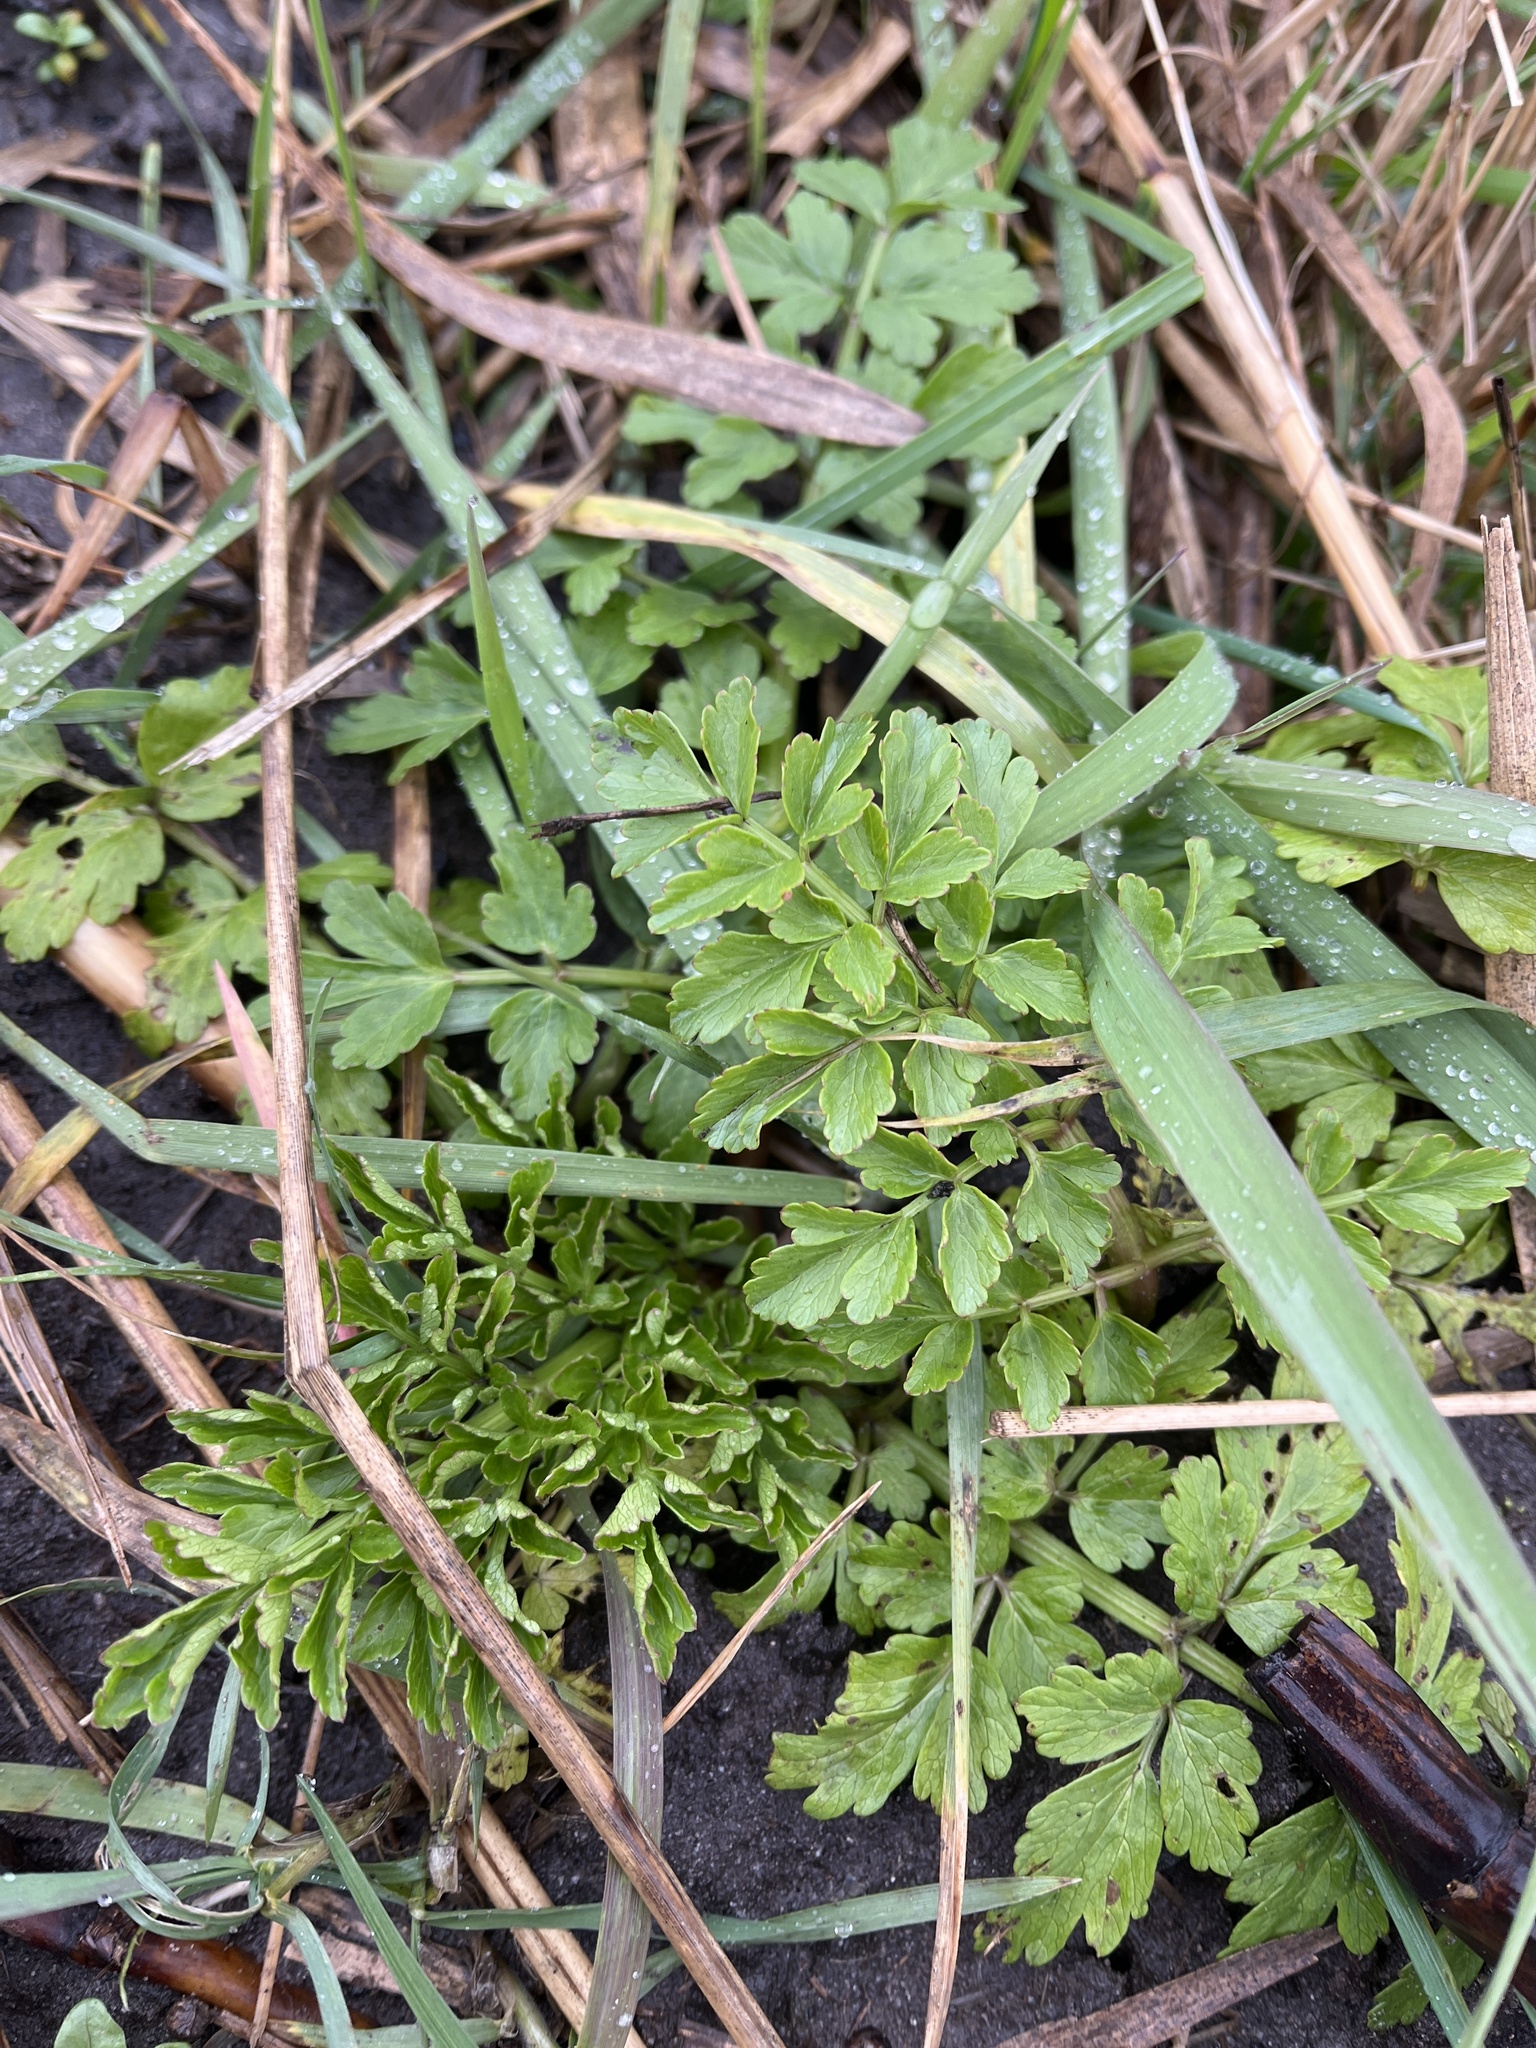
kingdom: Plantae
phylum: Tracheophyta
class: Magnoliopsida
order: Apiales
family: Apiaceae
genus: Oenanthe
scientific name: Oenanthe crocata
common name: Hemlock water-dropwort
